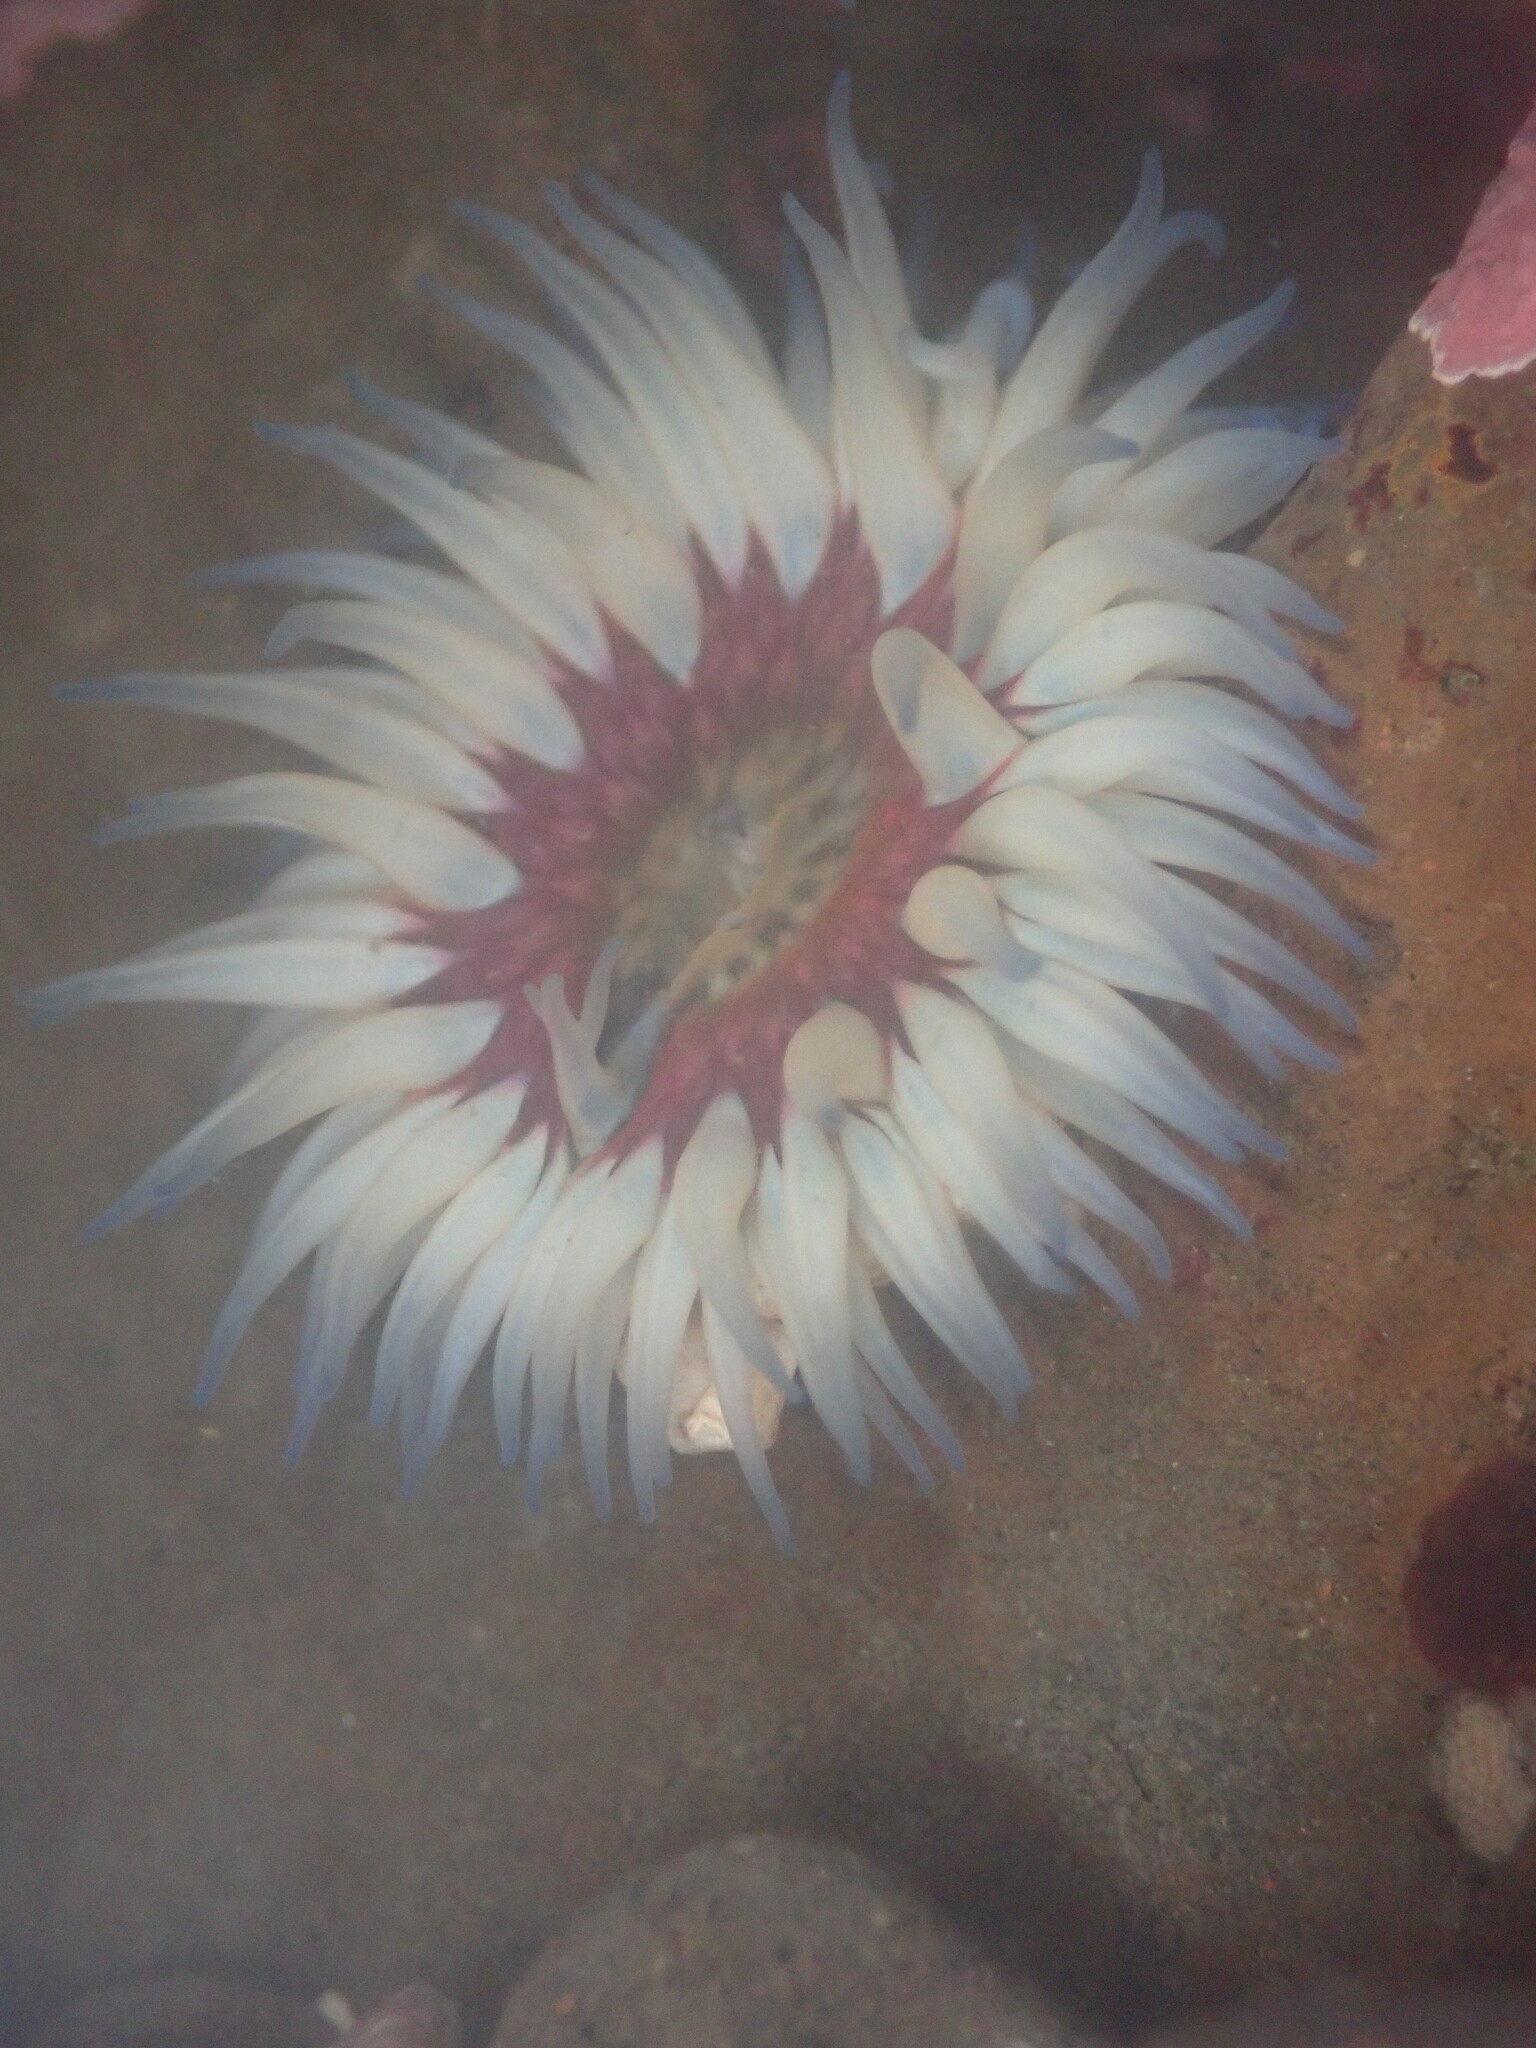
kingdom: Animalia
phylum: Cnidaria
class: Anthozoa
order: Actiniaria
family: Actiniidae
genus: Anthopleura
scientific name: Anthopleura artemisia
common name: Buried sea anemone
